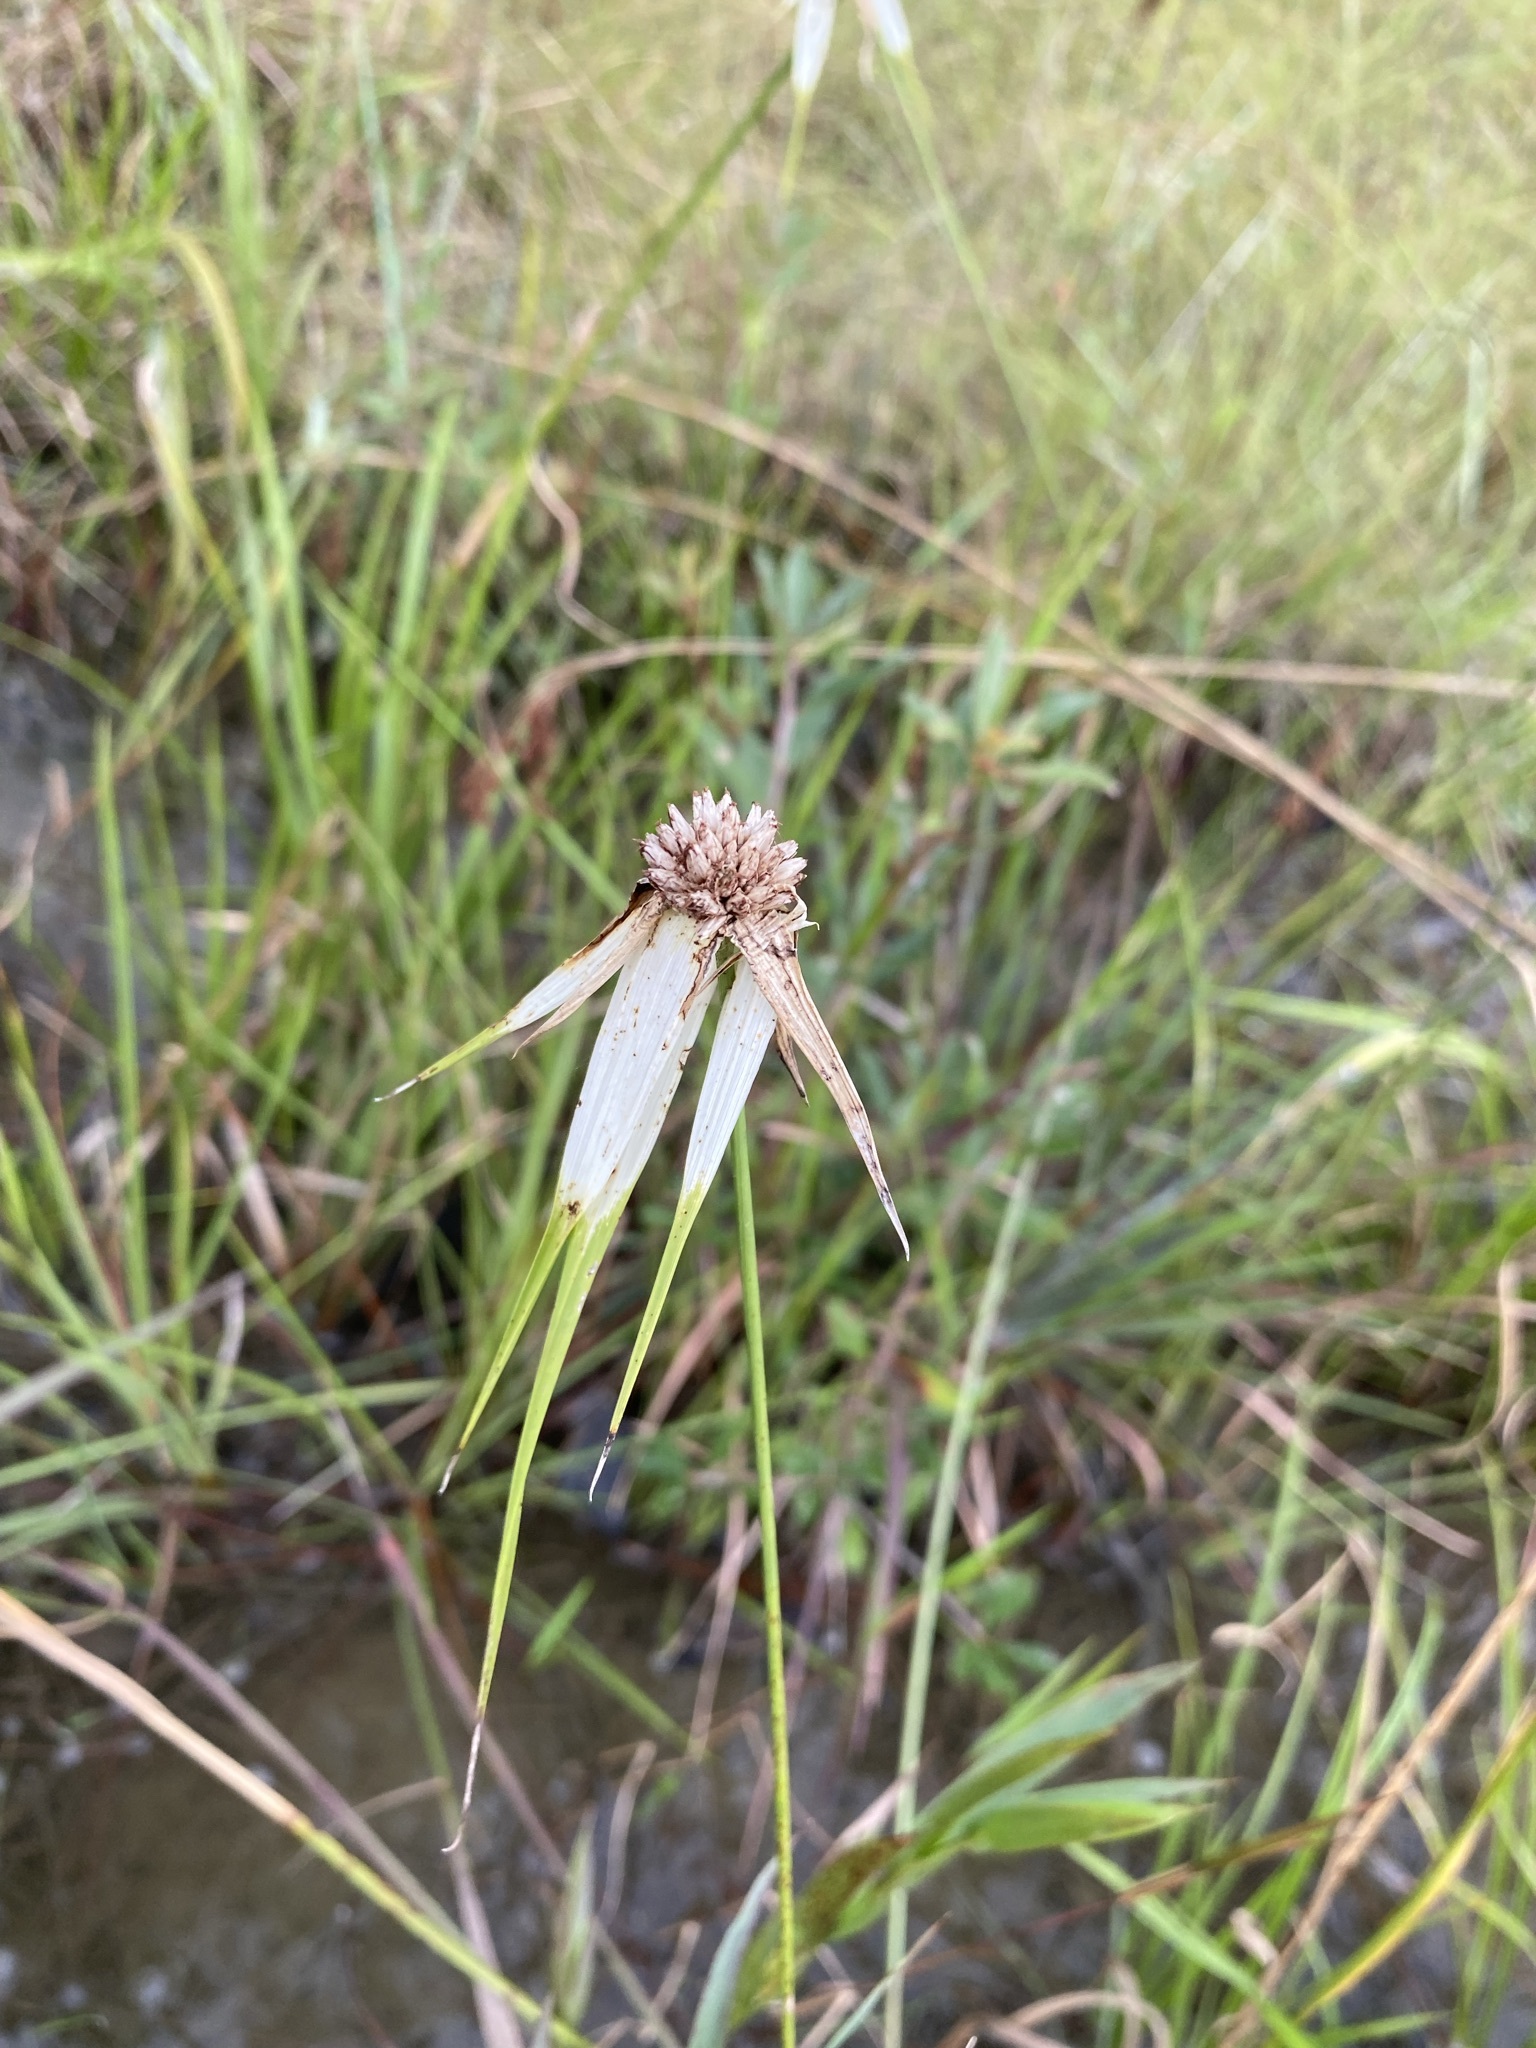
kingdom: Plantae
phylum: Tracheophyta
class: Liliopsida
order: Poales
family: Cyperaceae
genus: Rhynchospora
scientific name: Rhynchospora latifolia
